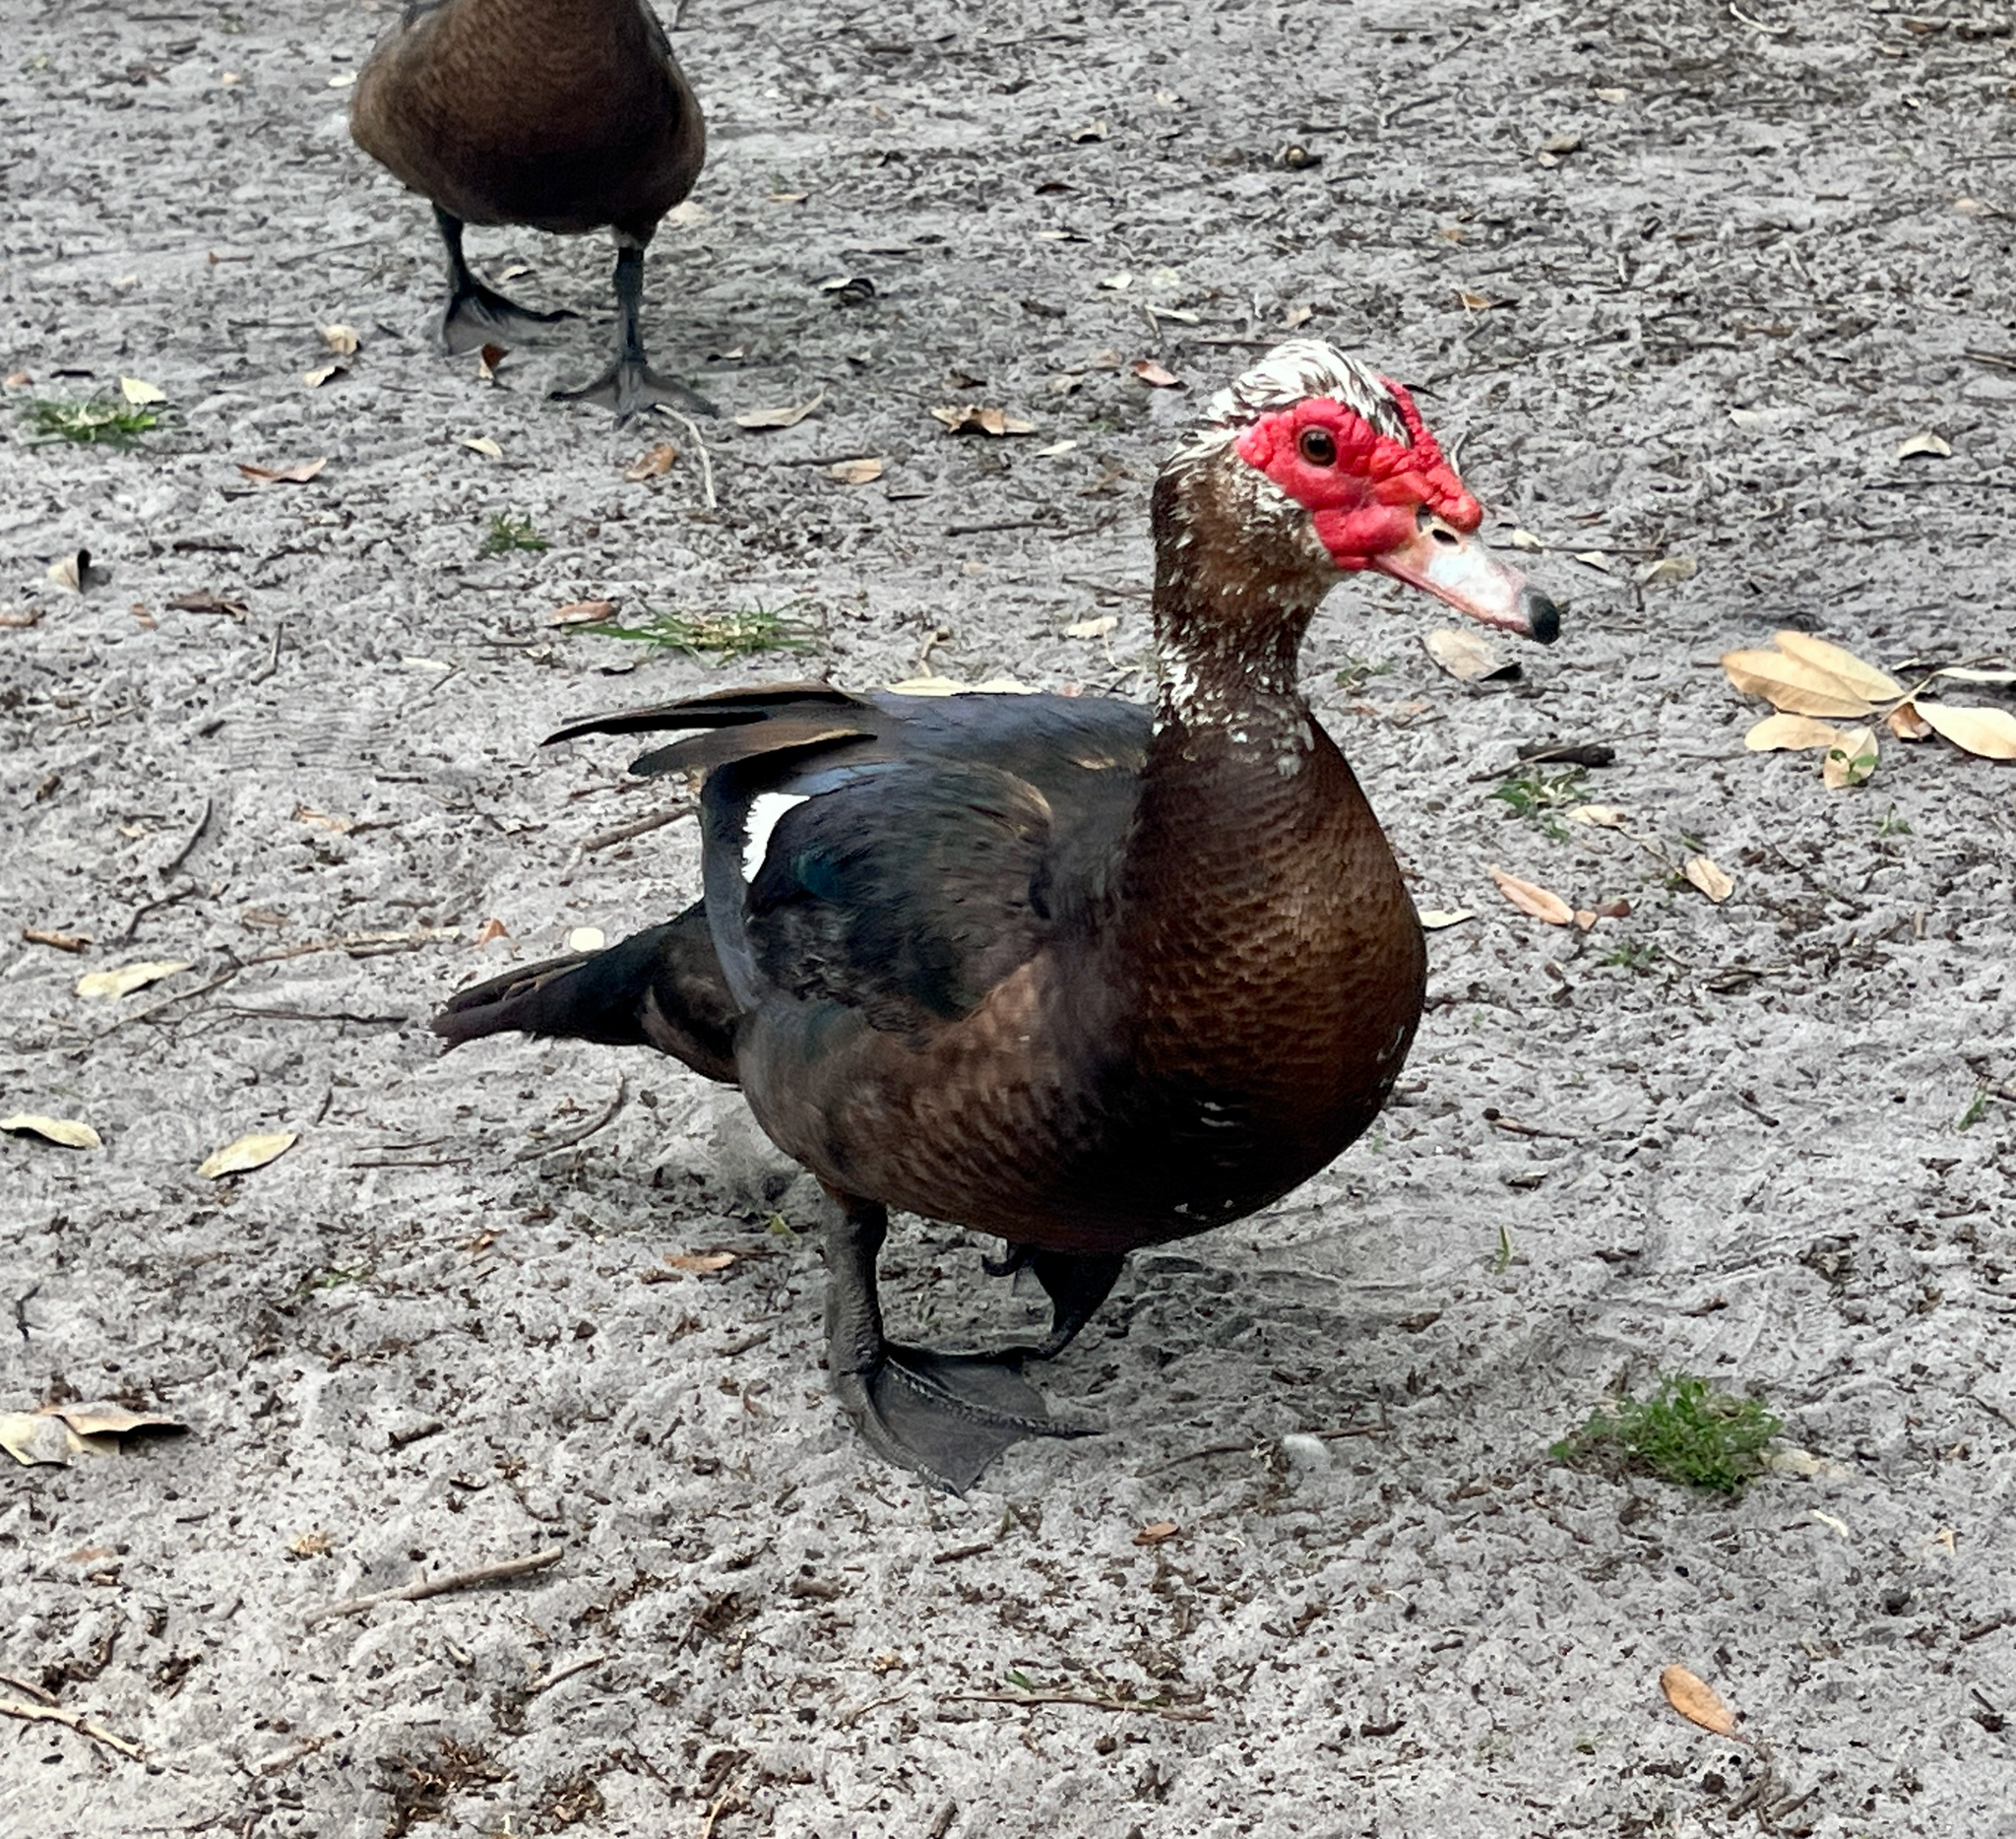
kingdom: Animalia
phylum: Chordata
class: Aves
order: Anseriformes
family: Anatidae
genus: Cairina
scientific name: Cairina moschata
